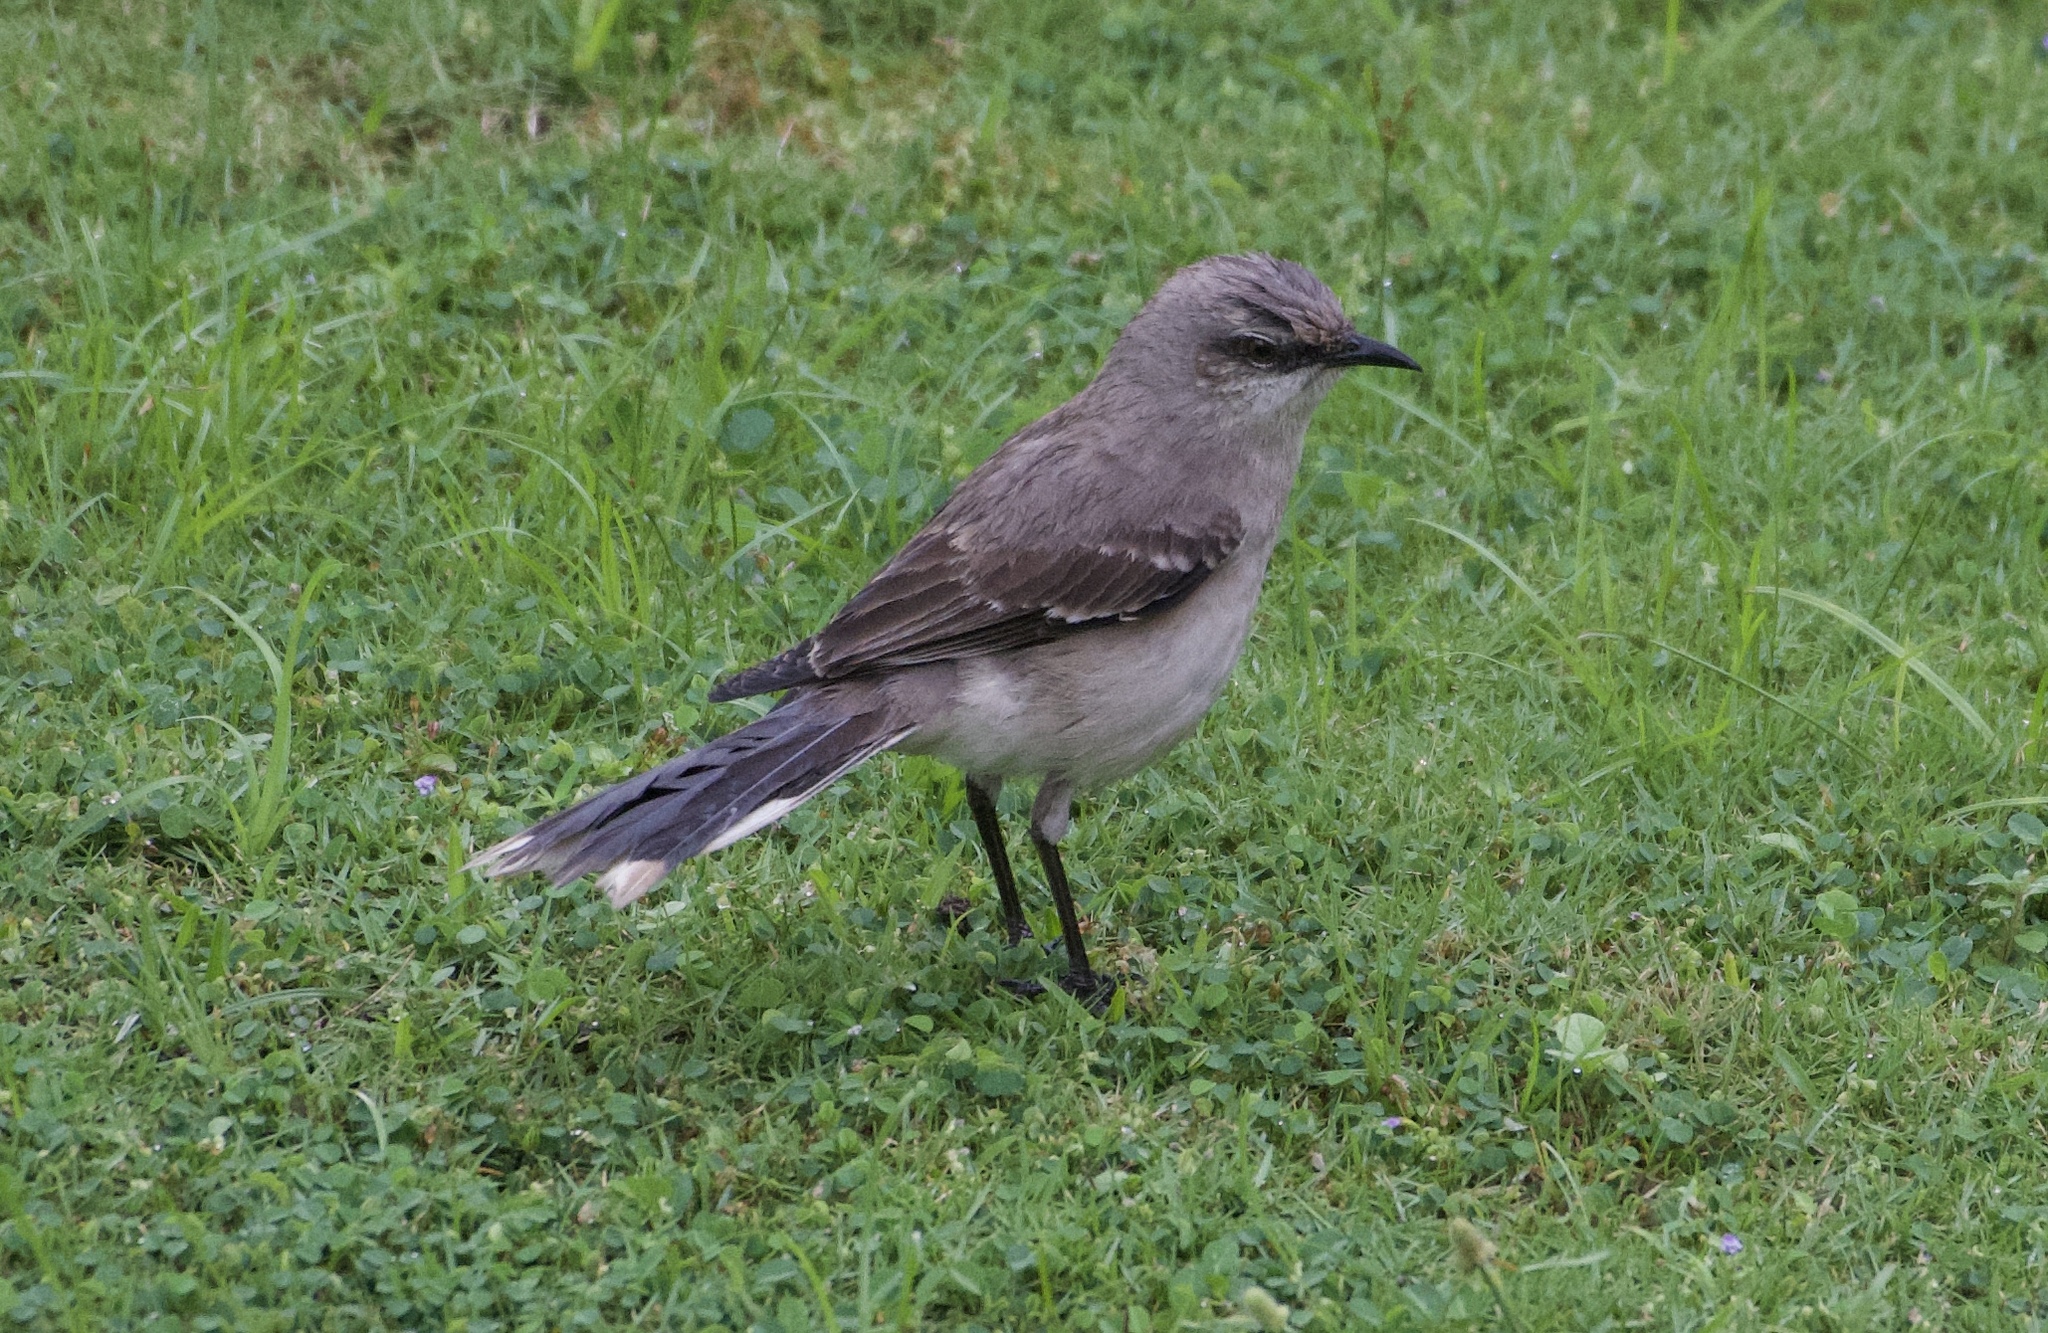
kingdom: Animalia
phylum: Chordata
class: Aves
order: Passeriformes
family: Mimidae
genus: Mimus
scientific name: Mimus gilvus
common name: Tropical mockingbird
